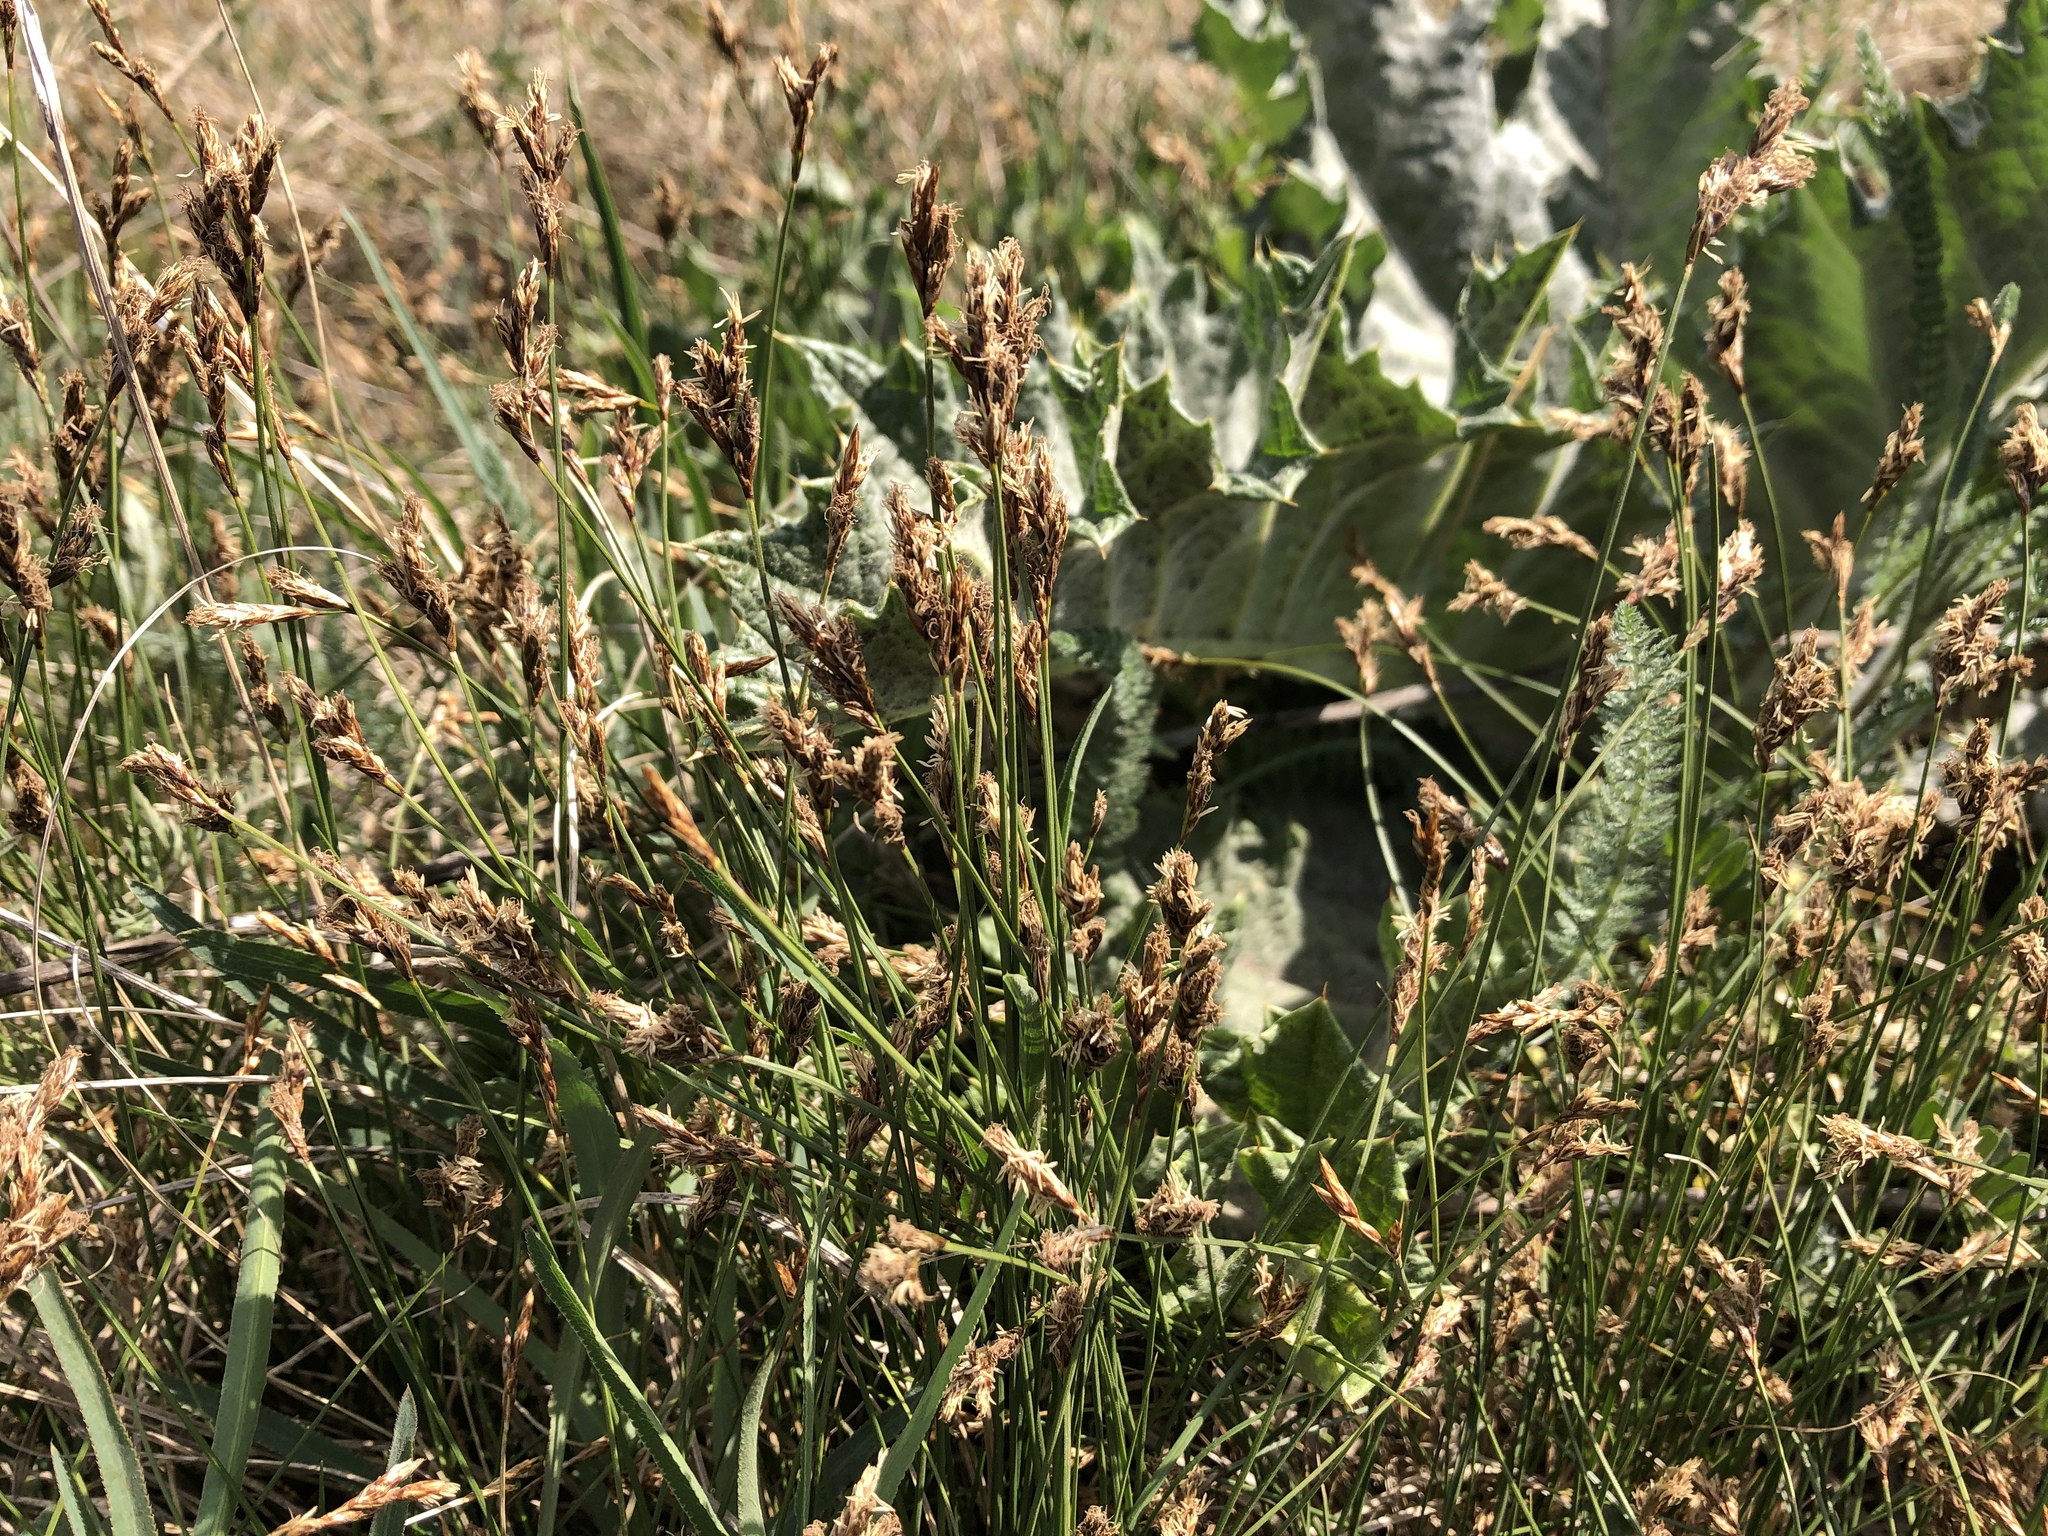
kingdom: Plantae
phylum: Tracheophyta
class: Liliopsida
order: Poales
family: Cyperaceae
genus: Carex
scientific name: Carex praecox
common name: Early sedge
